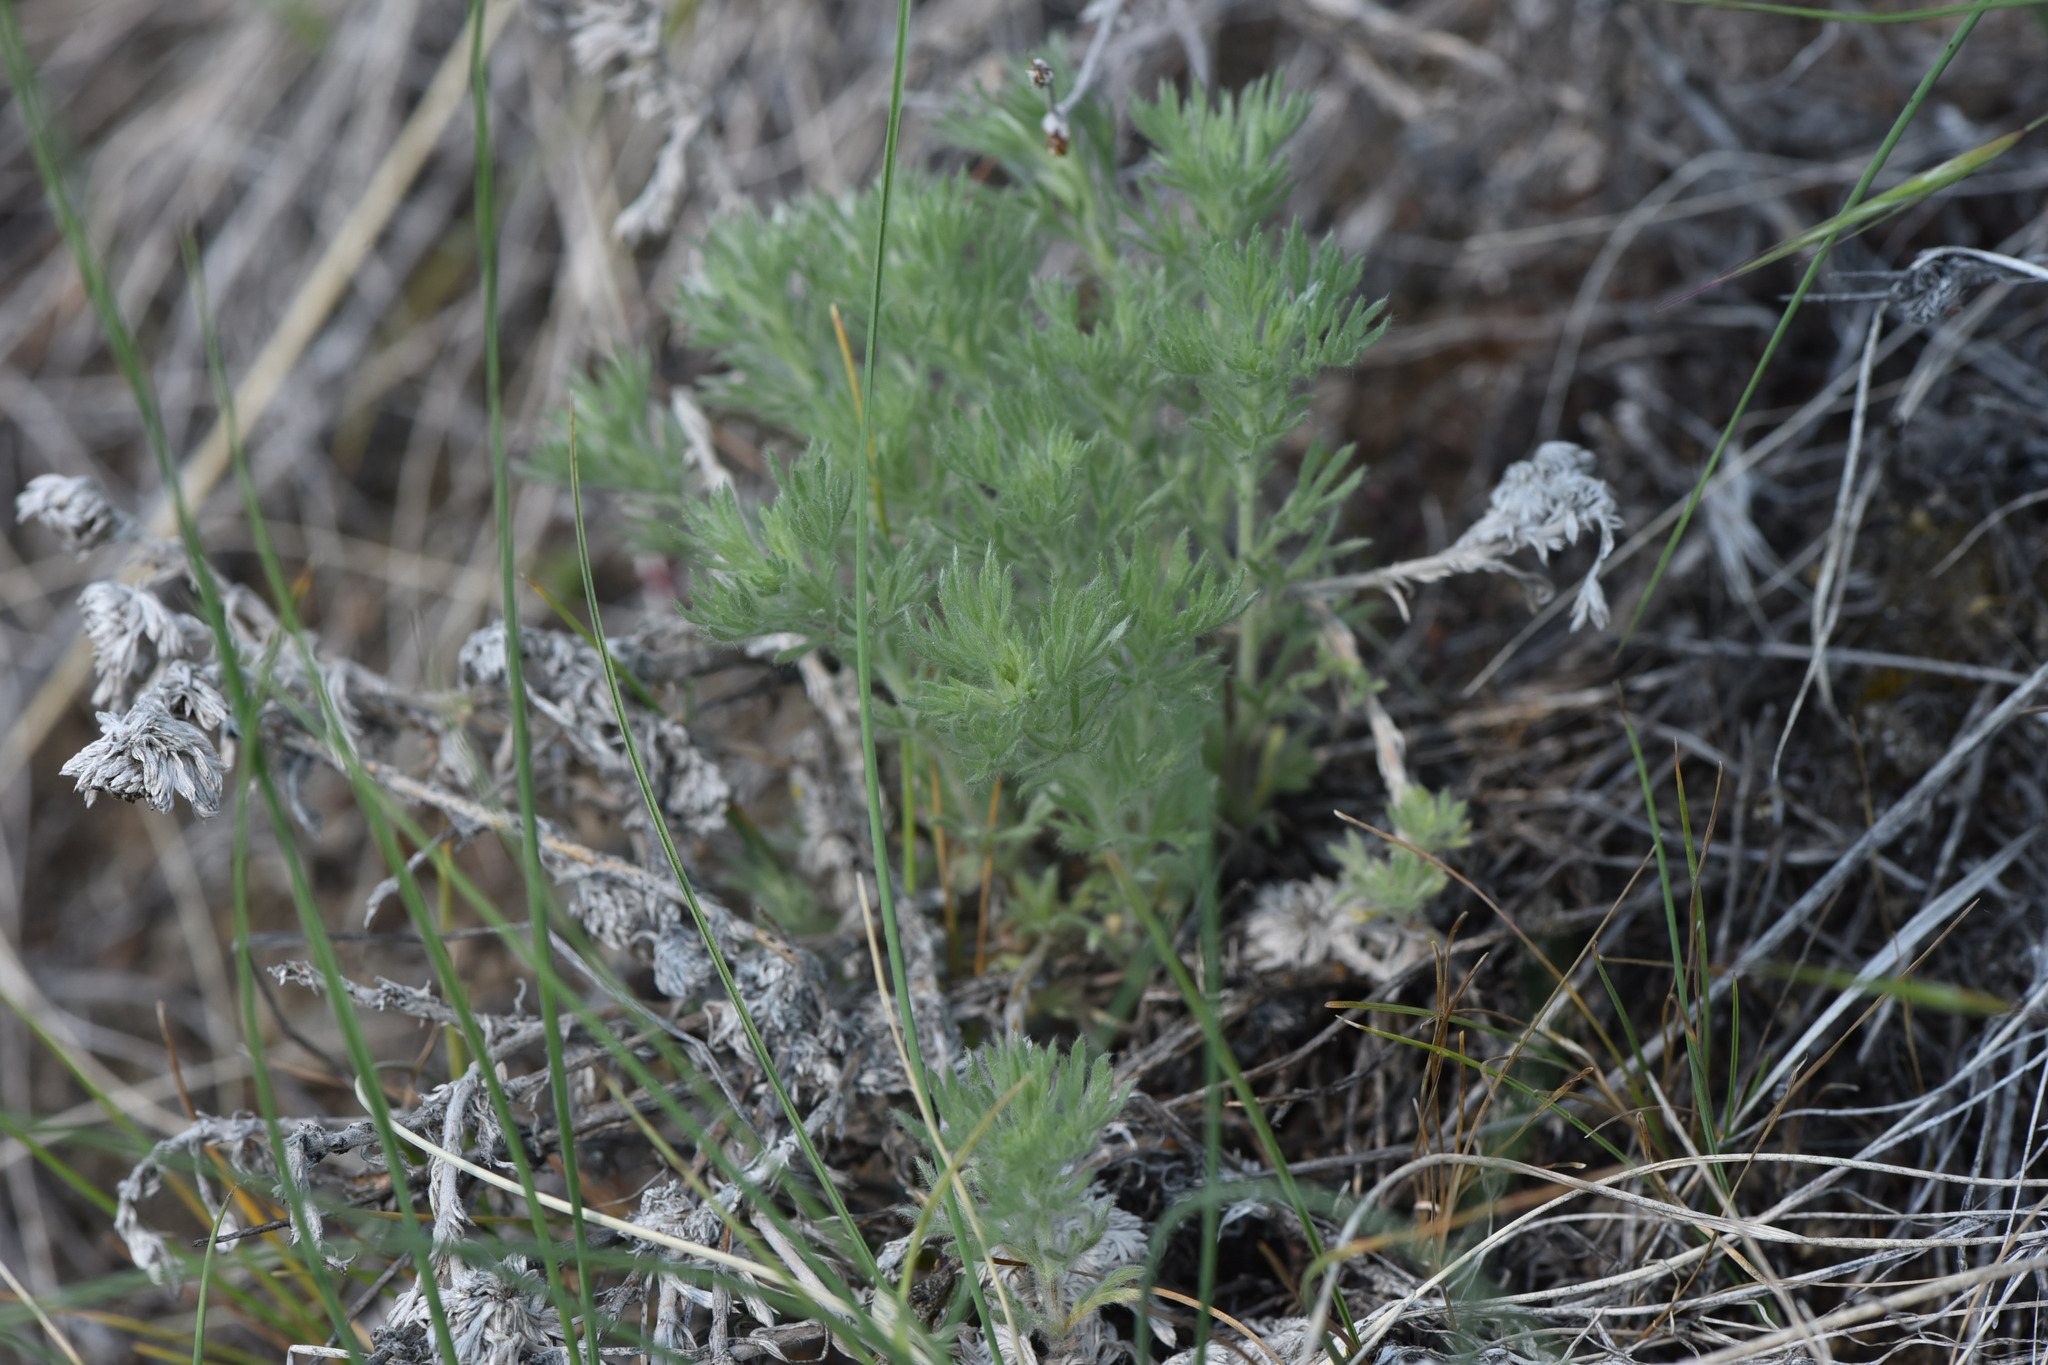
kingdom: Plantae
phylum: Tracheophyta
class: Magnoliopsida
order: Asterales
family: Asteraceae
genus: Artemisia
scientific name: Artemisia frigida
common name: Prairie sagewort
